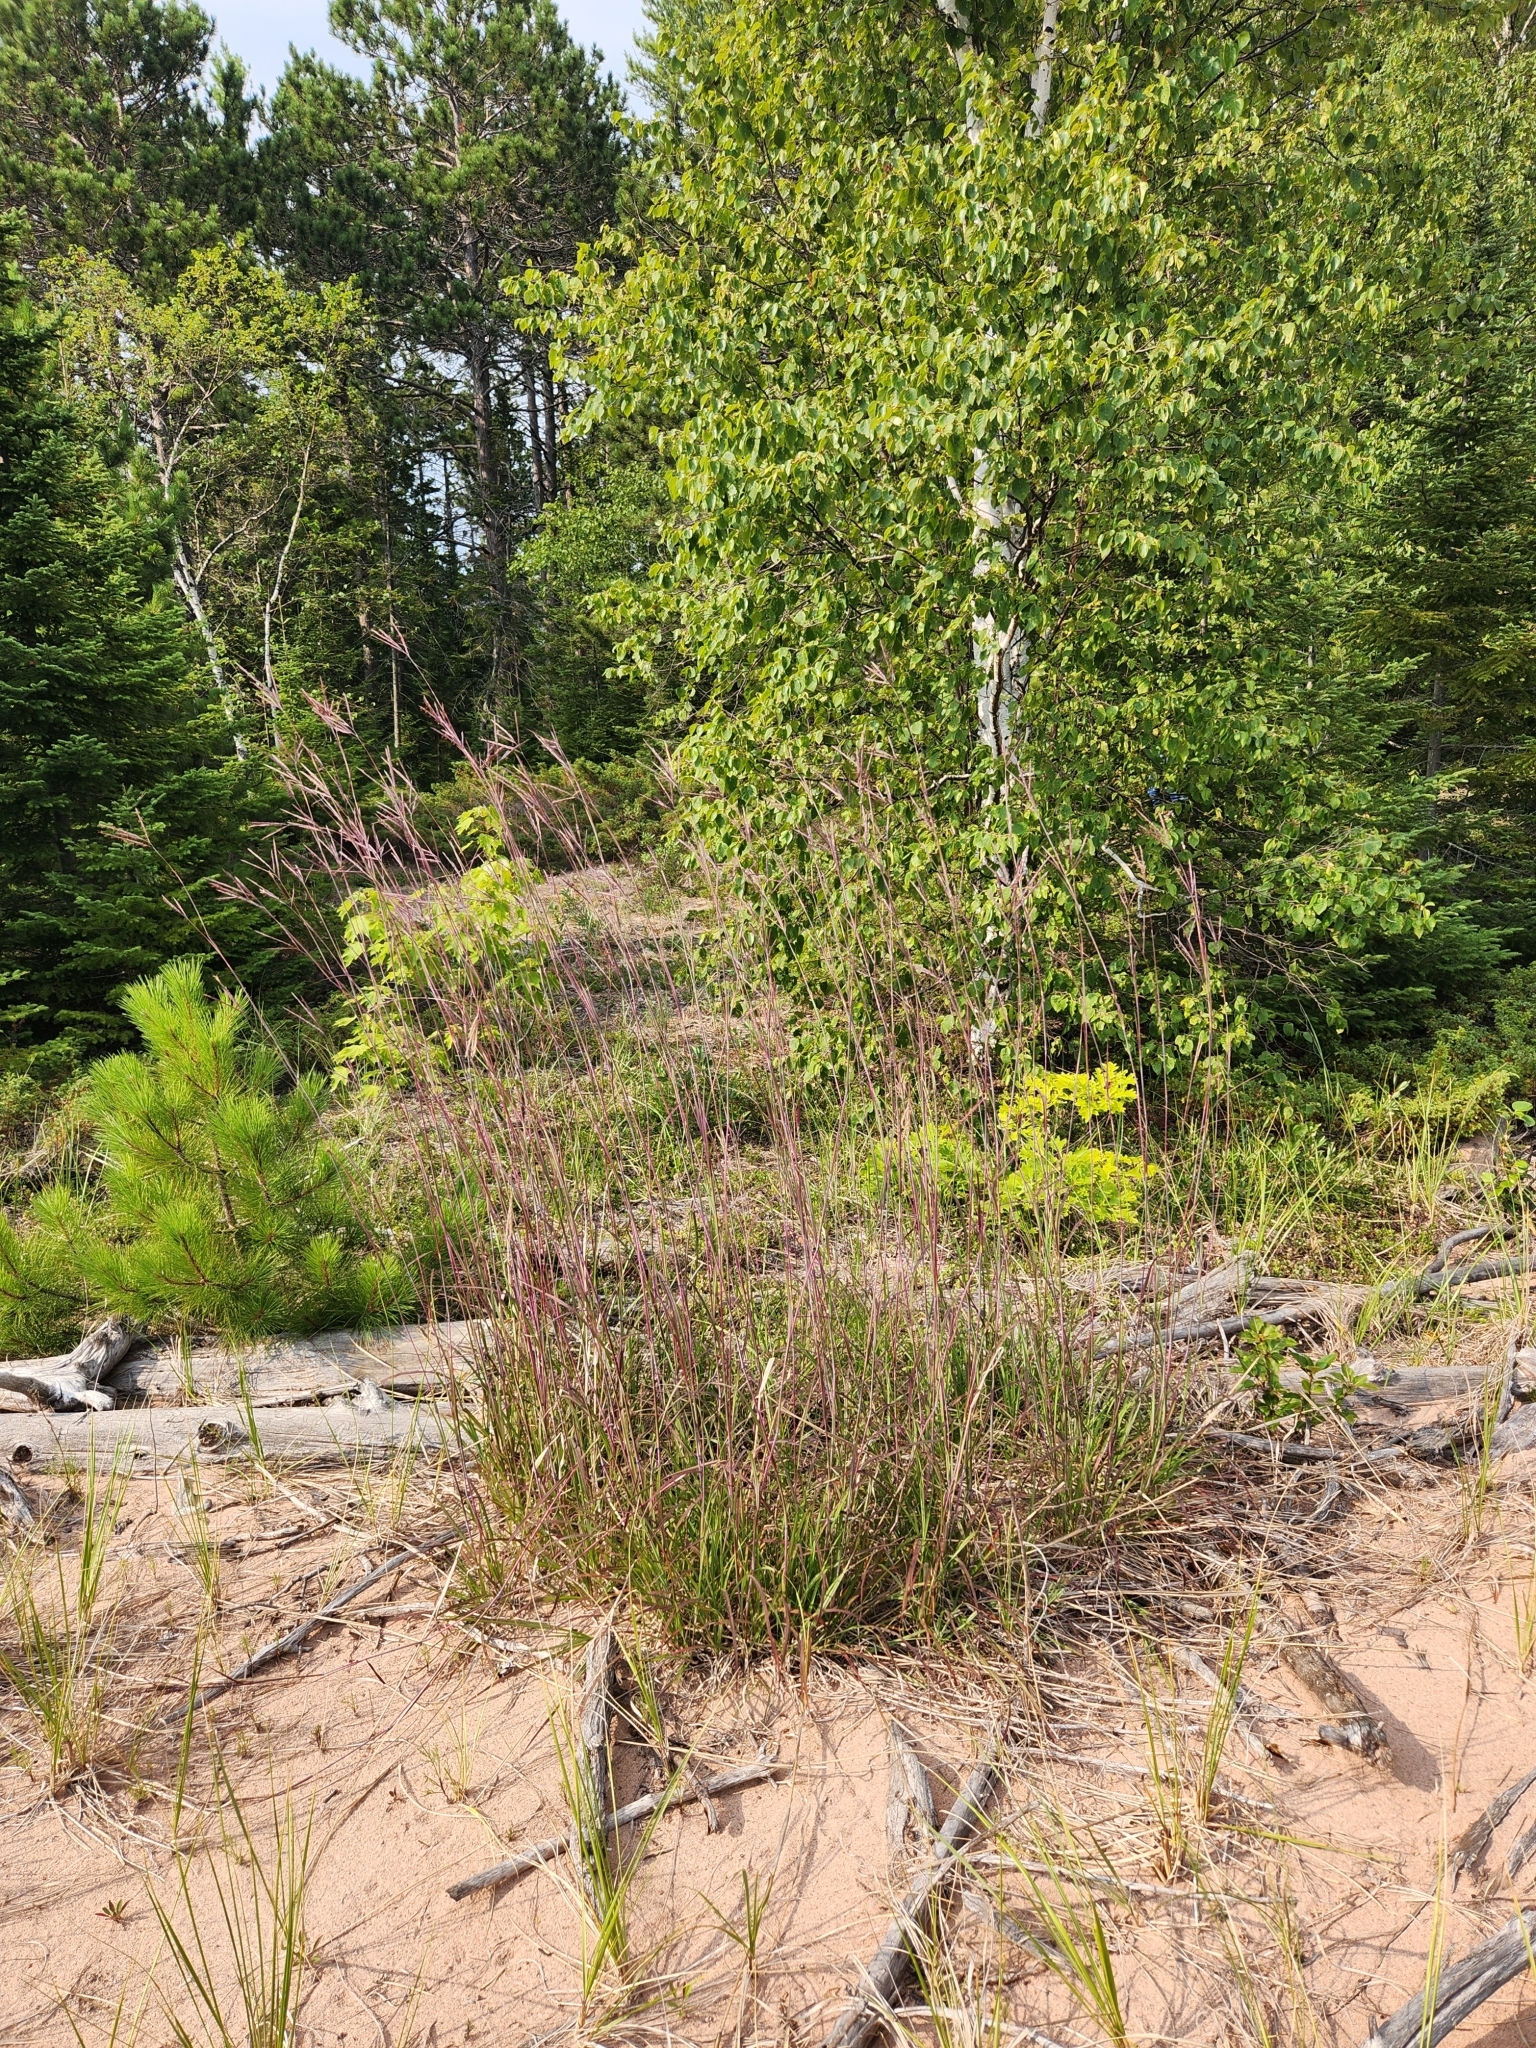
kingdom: Plantae
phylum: Tracheophyta
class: Liliopsida
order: Poales
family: Poaceae
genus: Andropogon
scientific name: Andropogon gerardi
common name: Big bluestem
